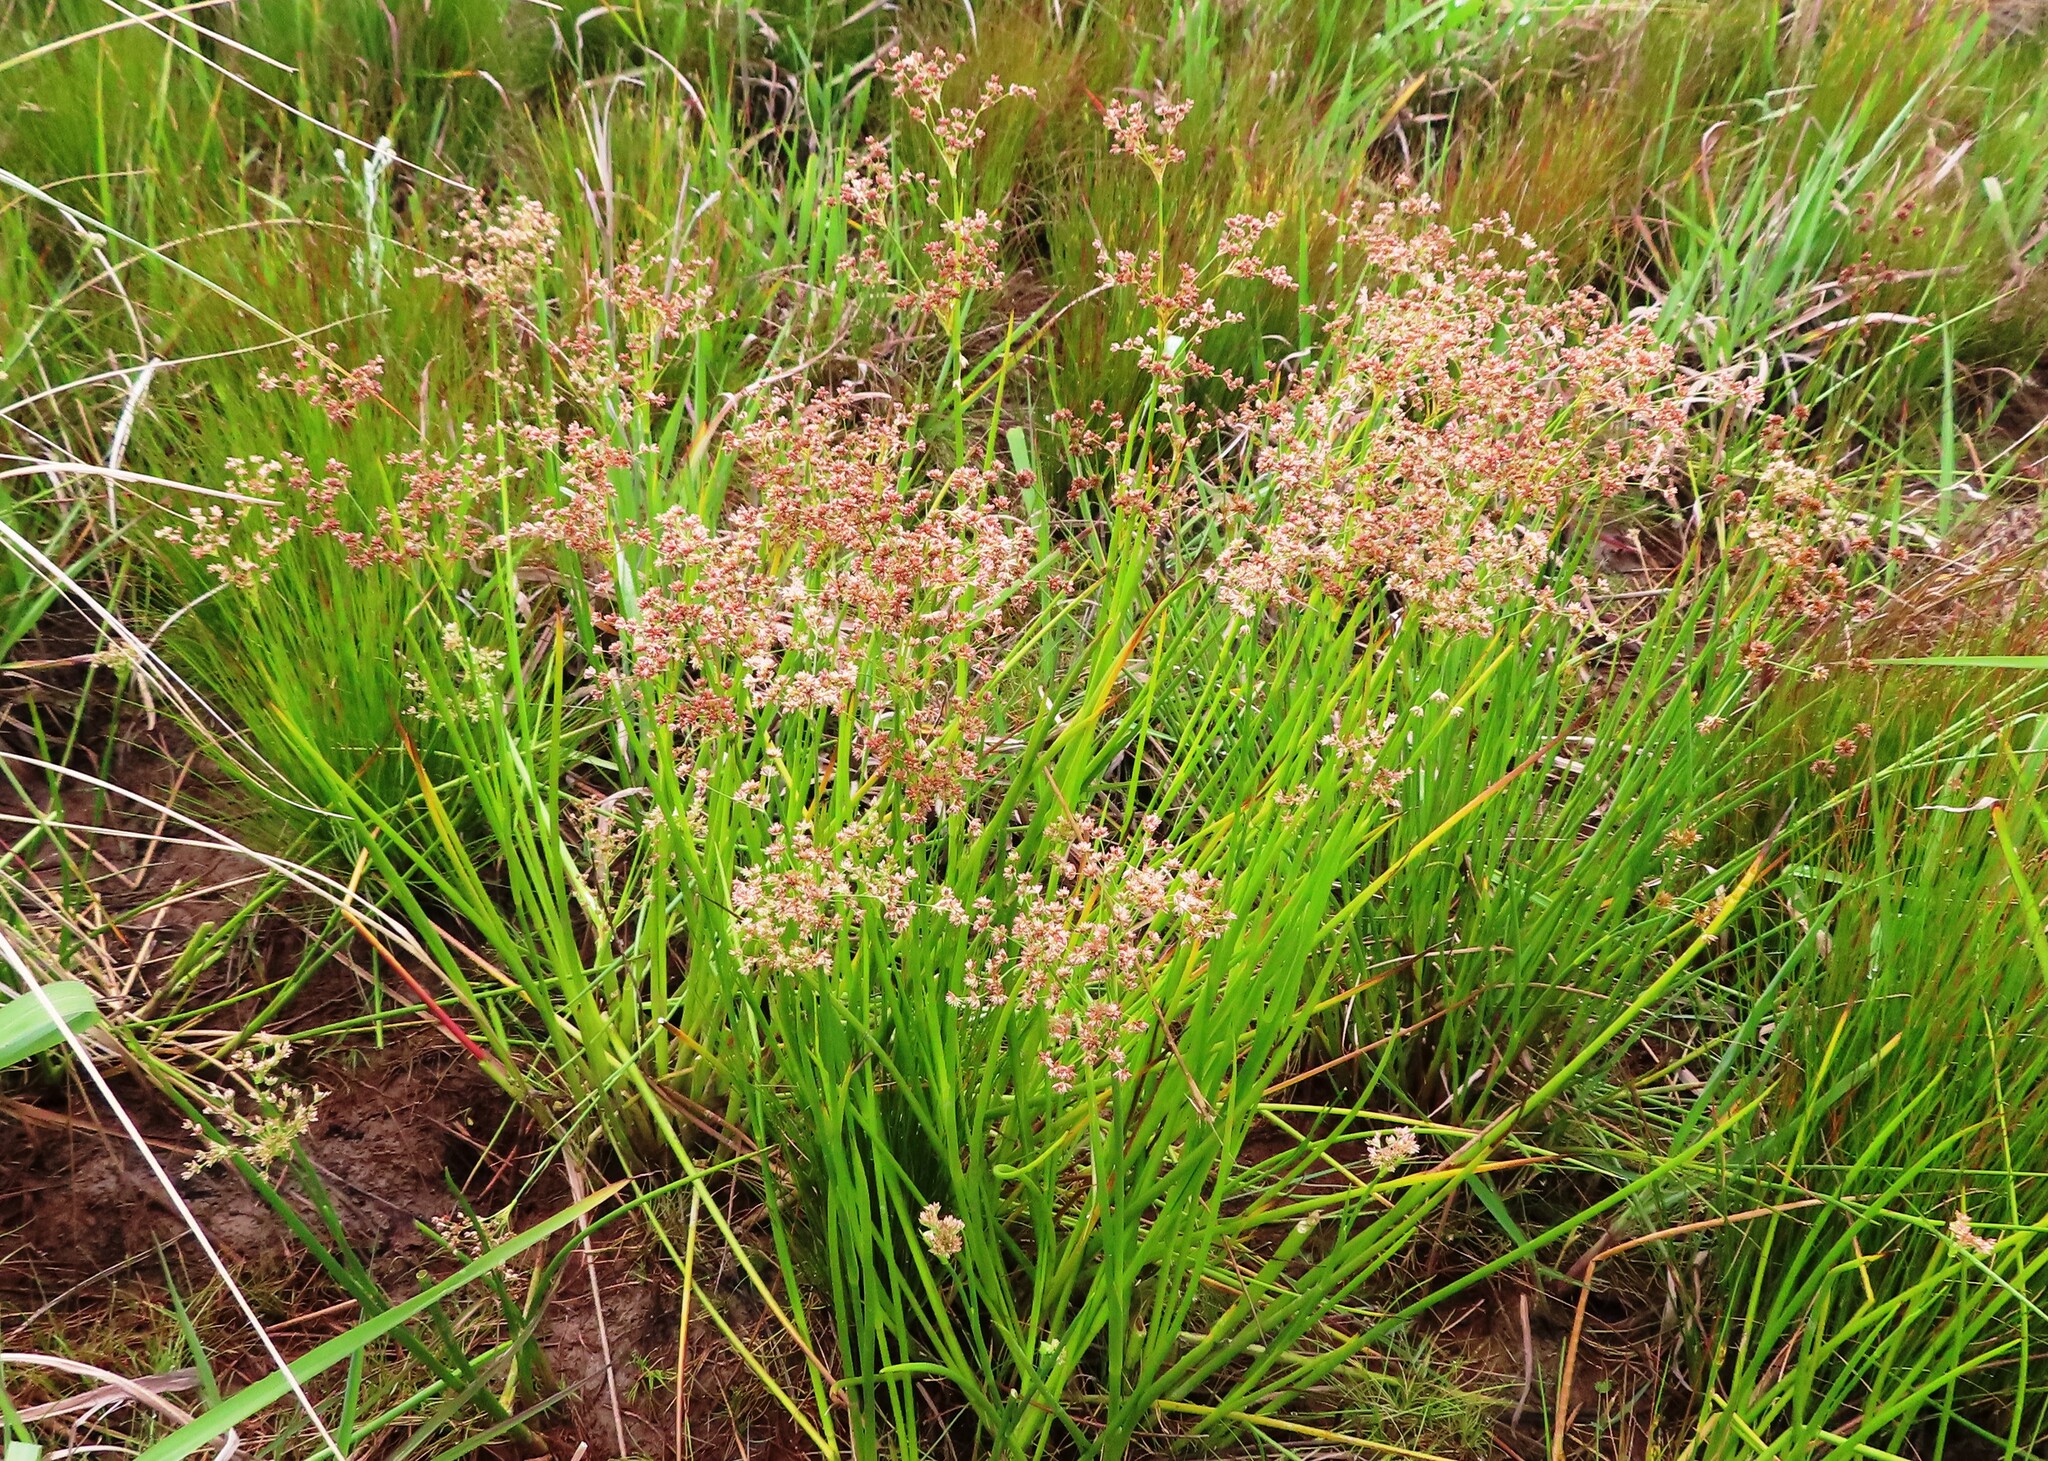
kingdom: Plantae
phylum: Tracheophyta
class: Liliopsida
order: Poales
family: Juncaceae
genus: Juncus
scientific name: Juncus oxycarpus
